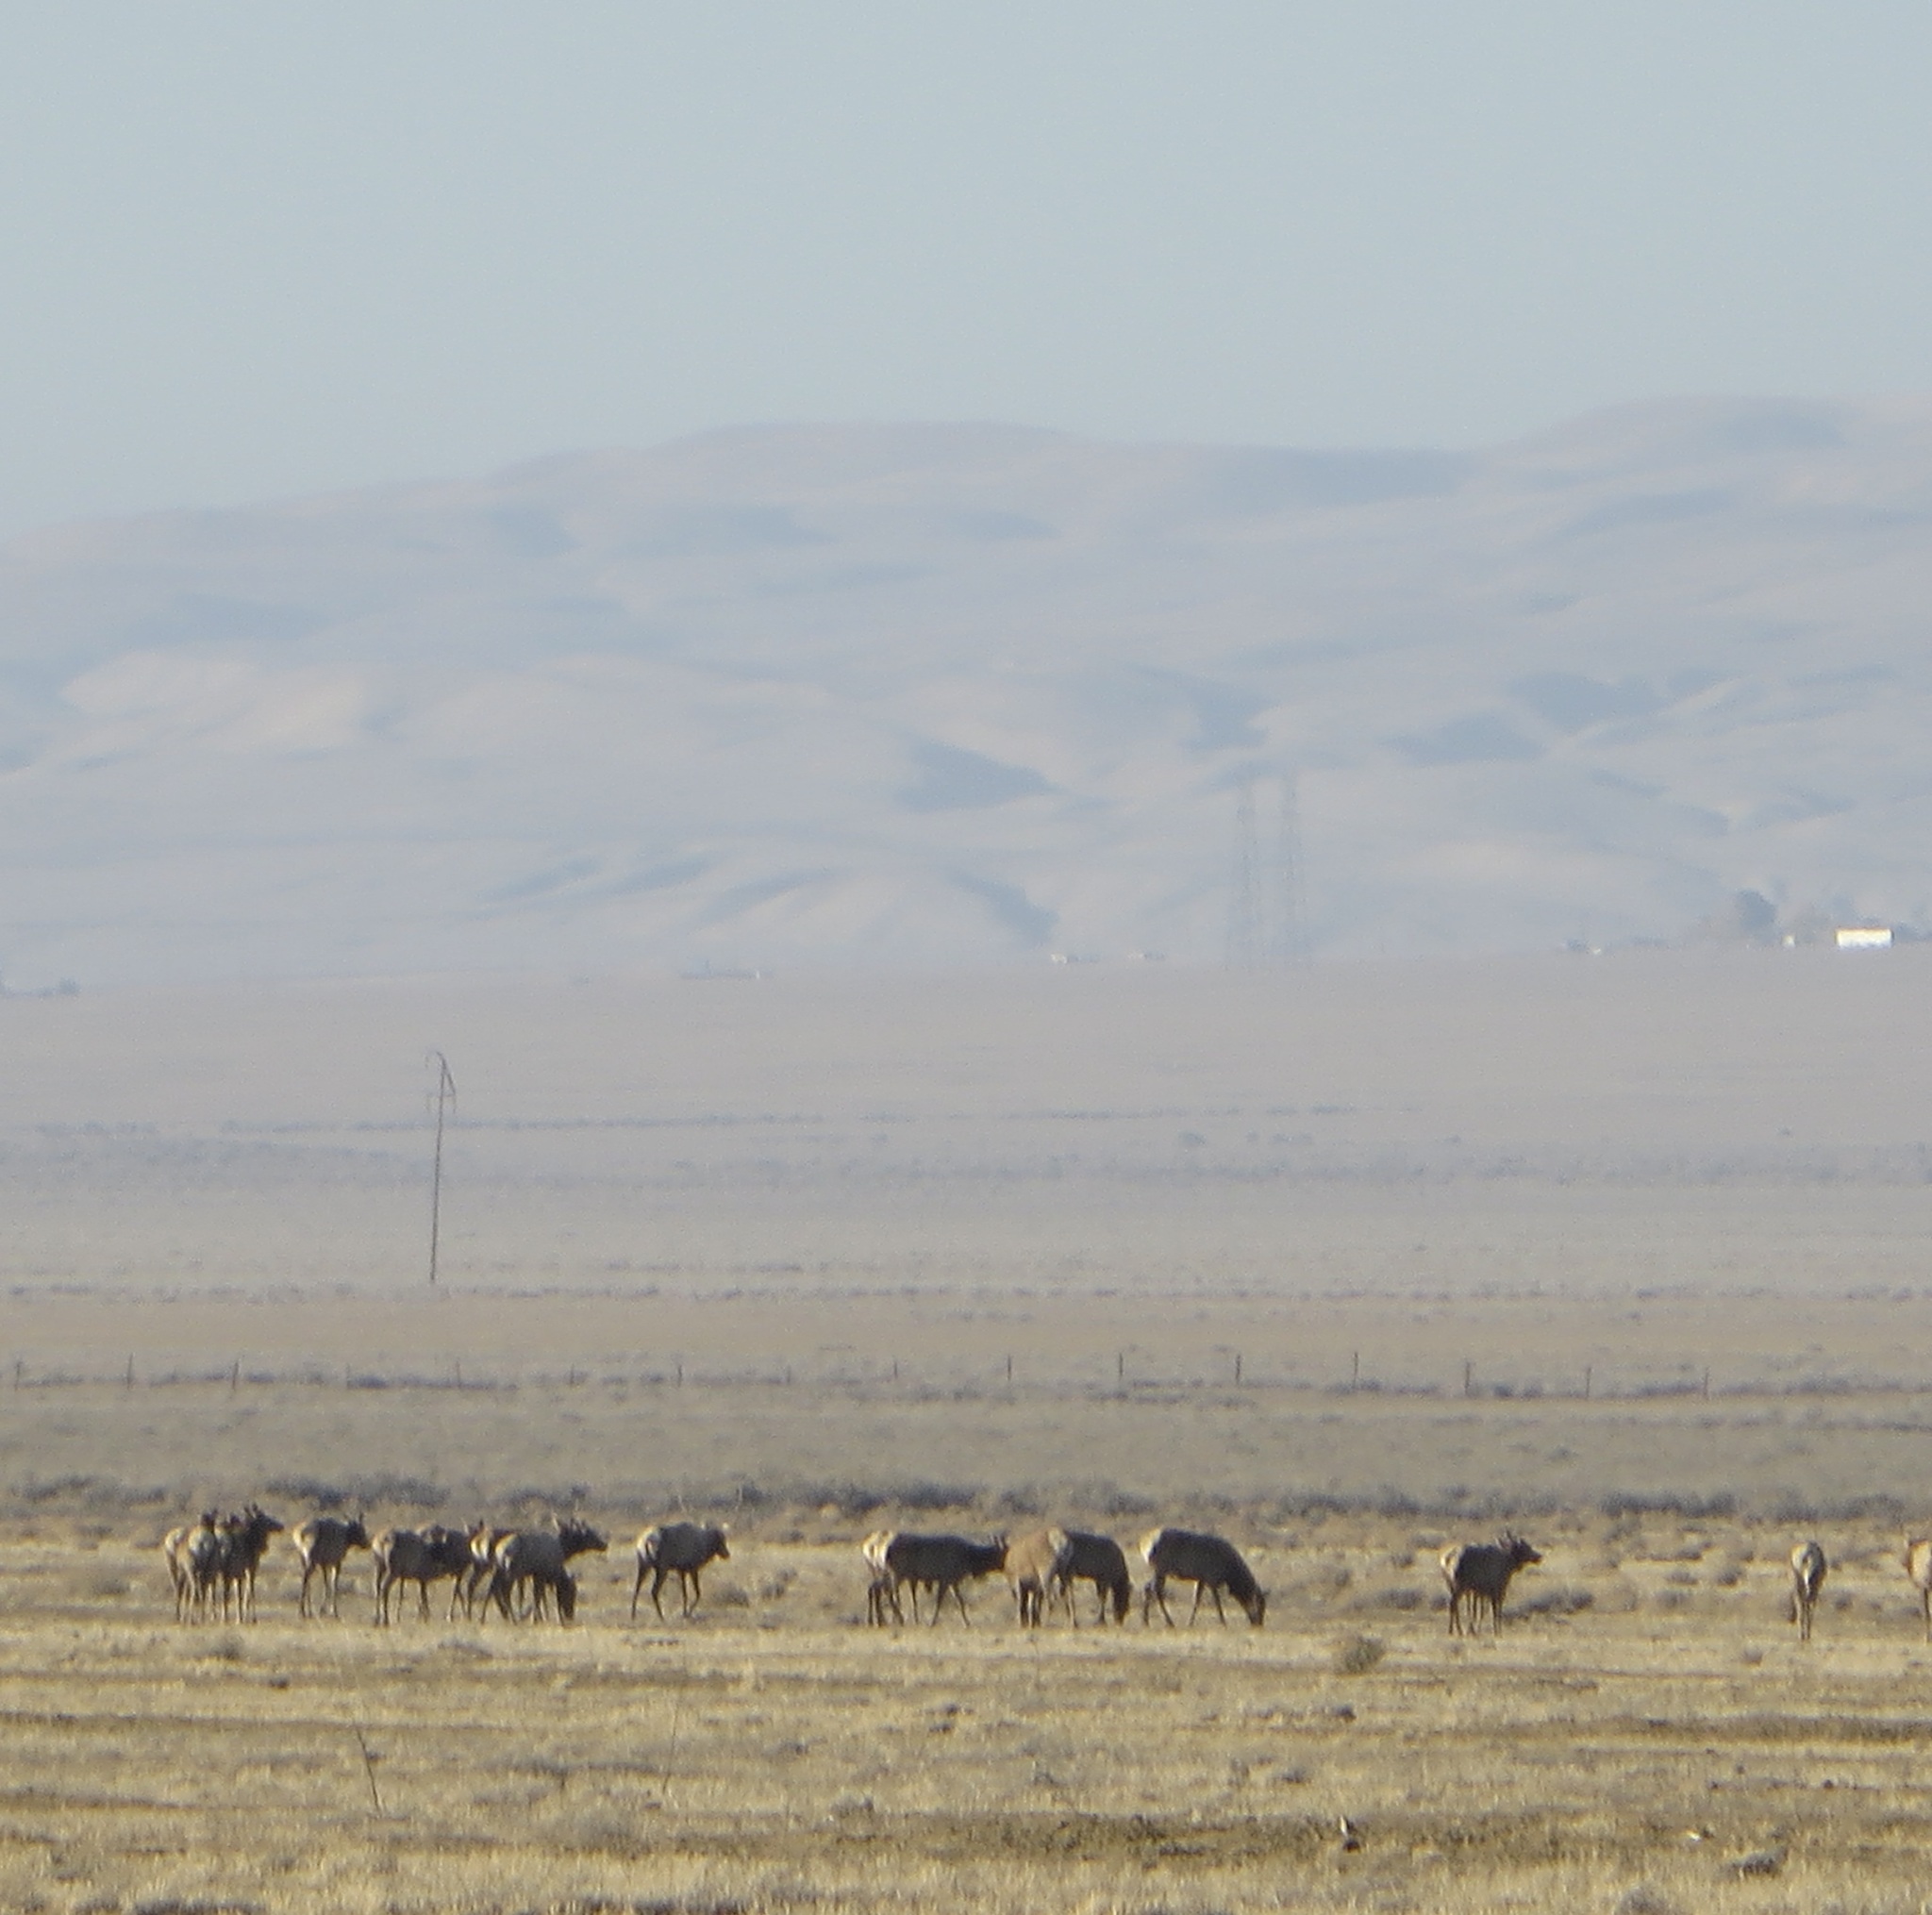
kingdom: Animalia
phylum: Chordata
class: Mammalia
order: Artiodactyla
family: Cervidae
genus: Cervus
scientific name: Cervus elaphus
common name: Red deer
